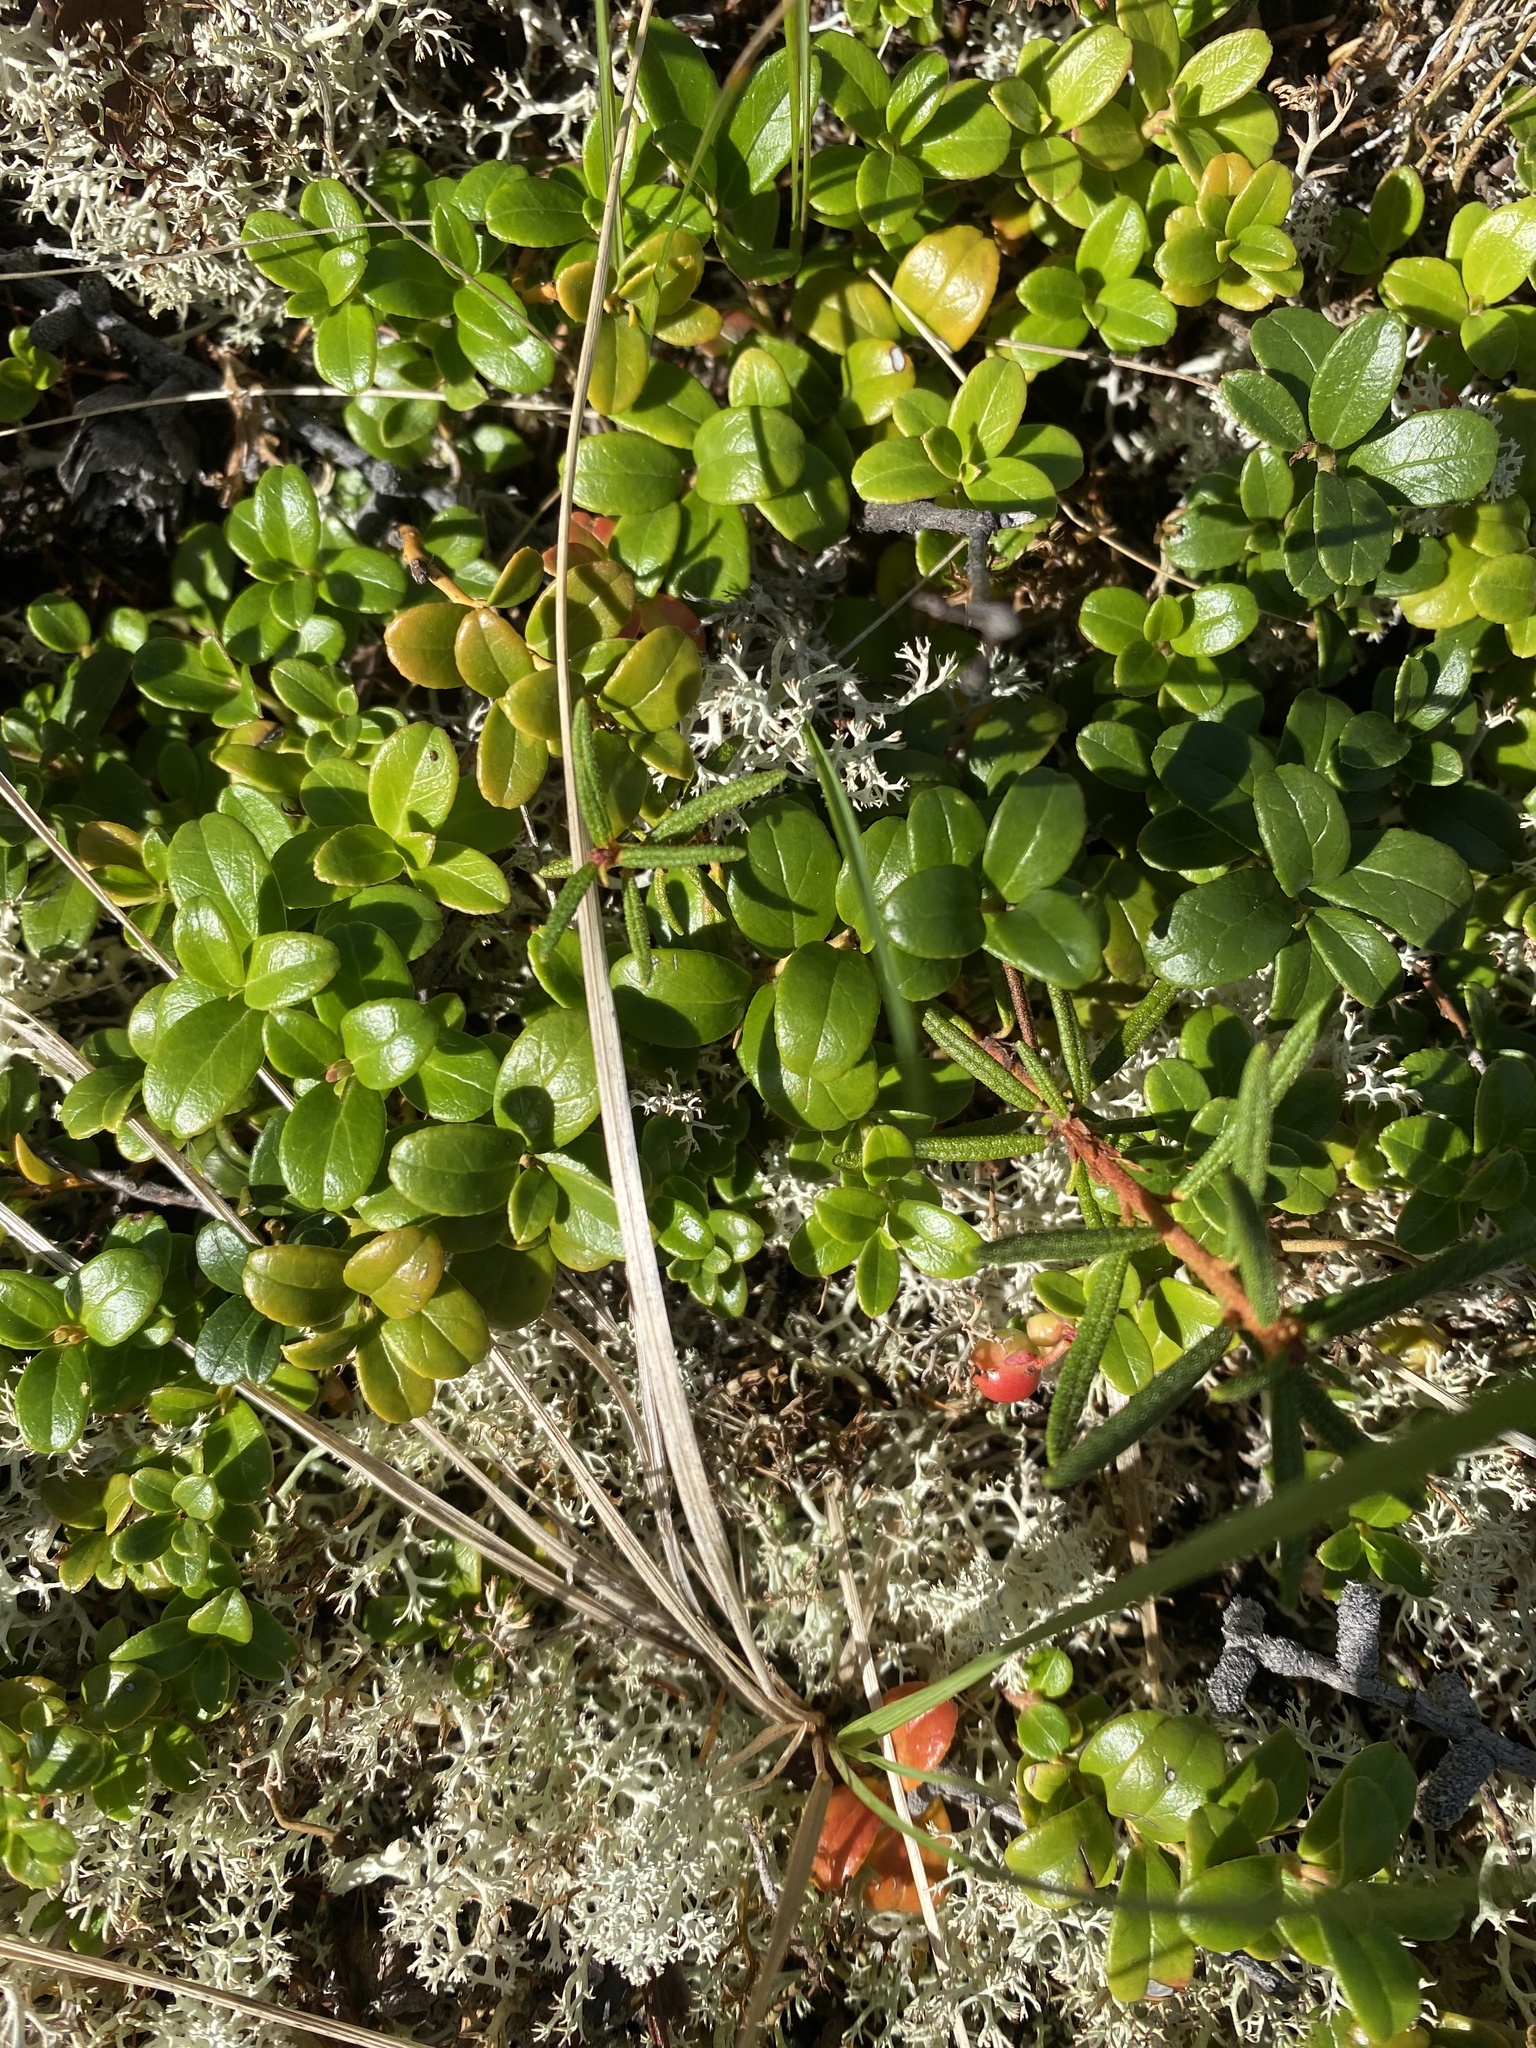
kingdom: Plantae
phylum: Tracheophyta
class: Magnoliopsida
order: Ericales
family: Ericaceae
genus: Vaccinium
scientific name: Vaccinium vitis-idaea
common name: Cowberry
